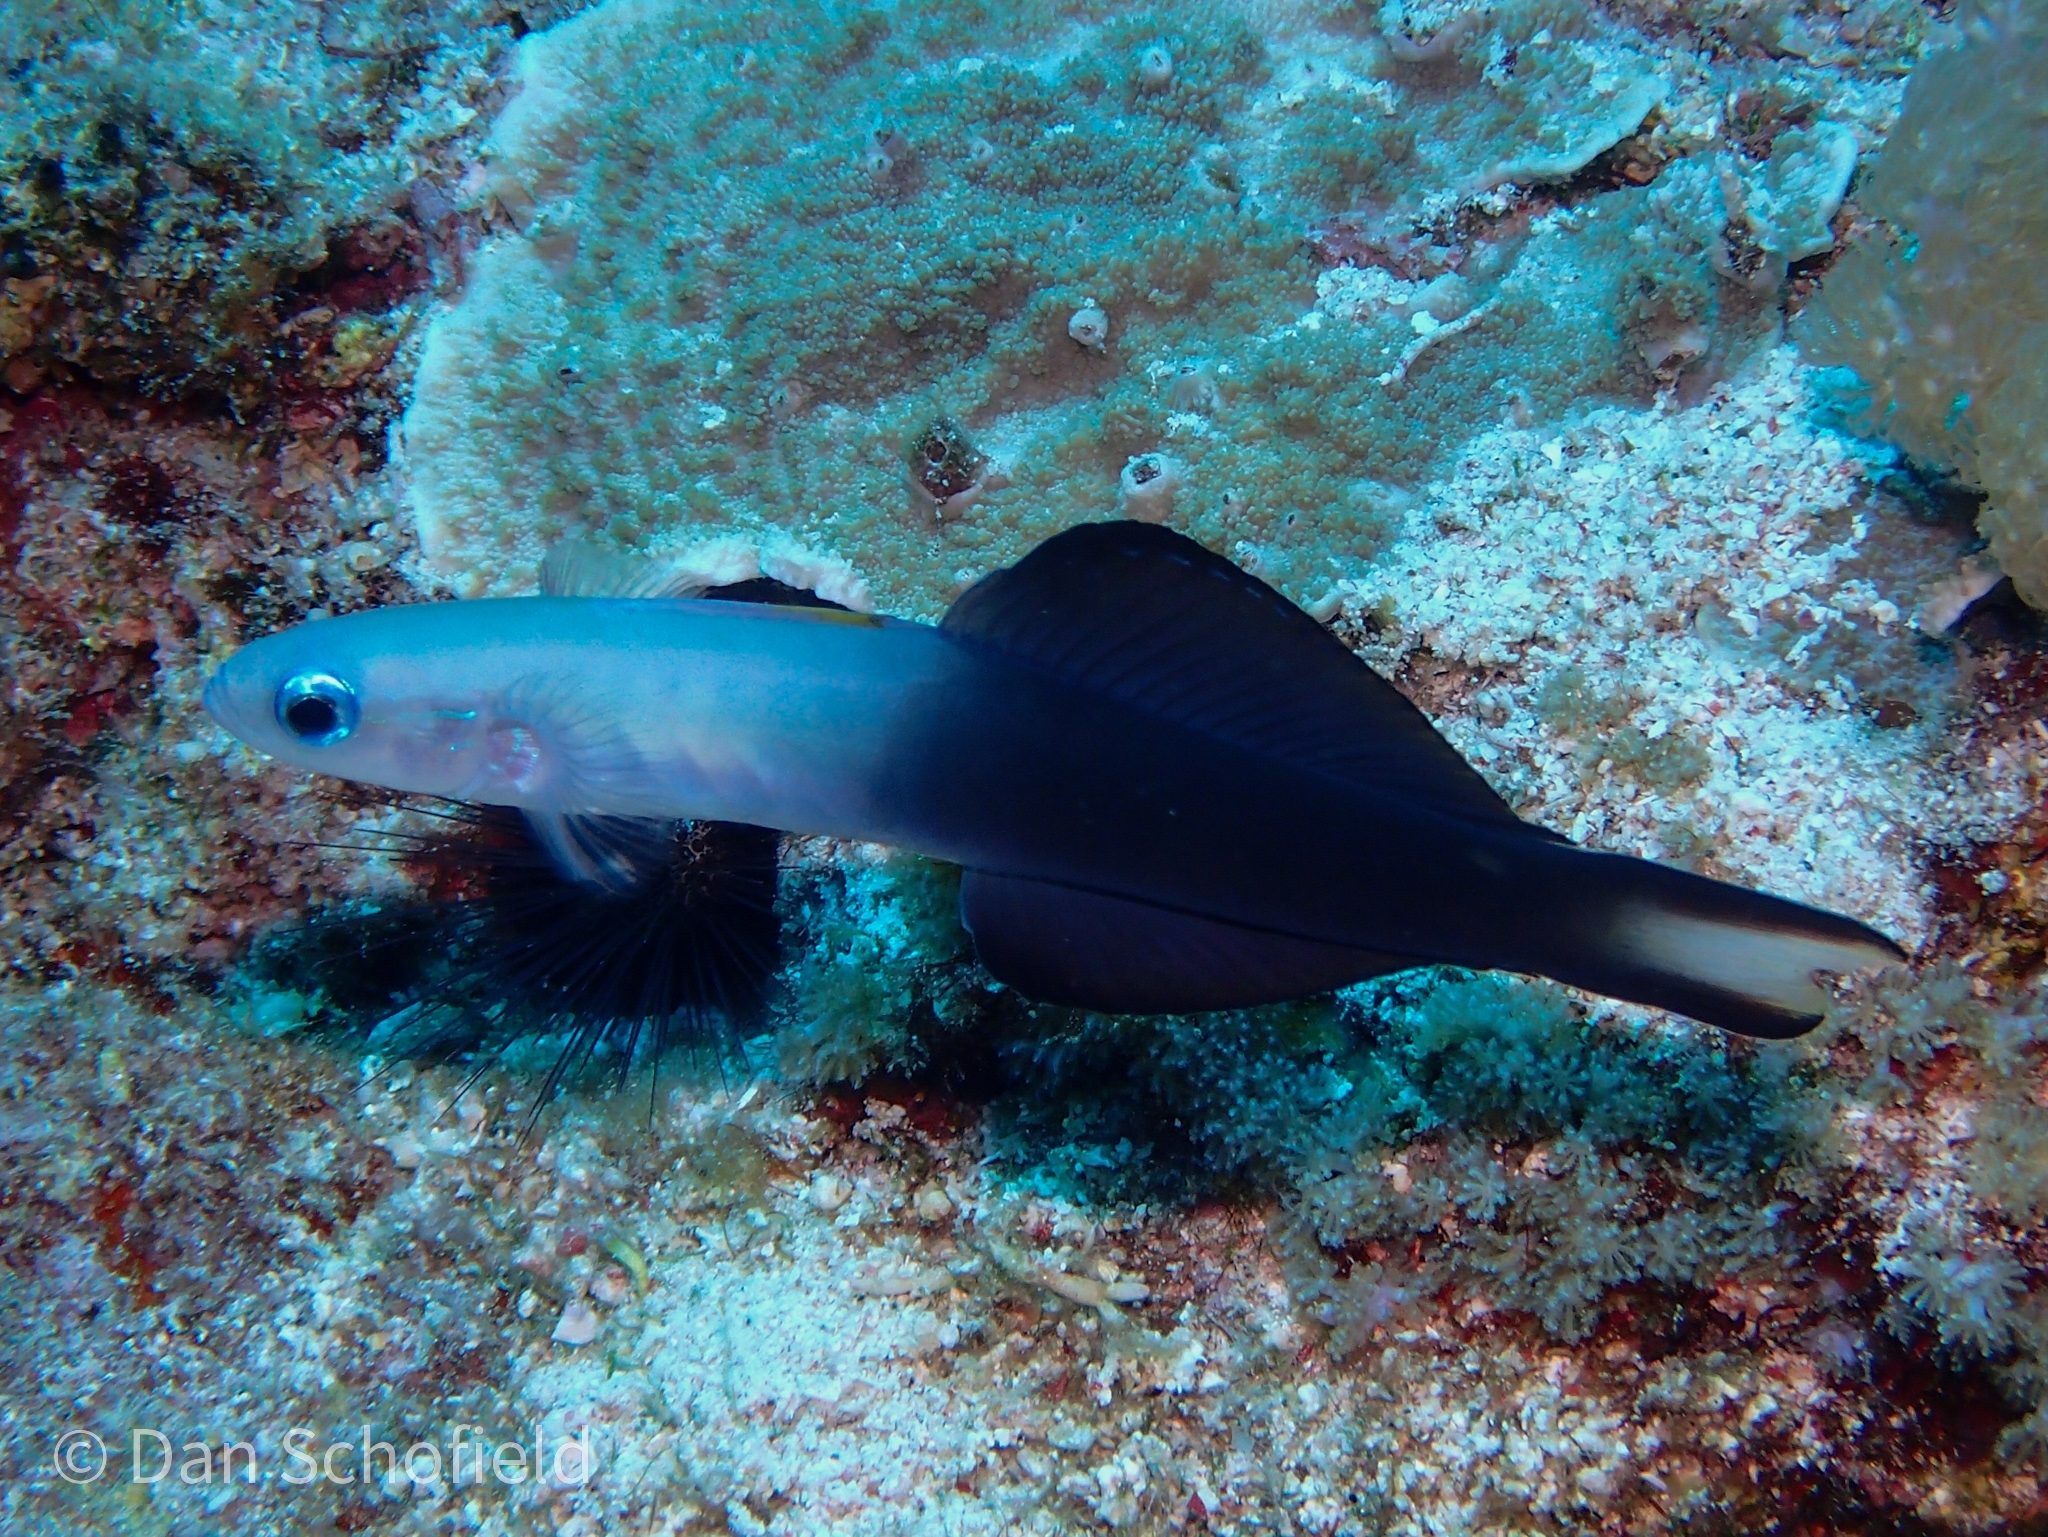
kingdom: Animalia
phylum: Chordata
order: Perciformes
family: Microdesmidae
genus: Ptereleotris
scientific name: Ptereleotris evides
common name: Blackfin dartfish
